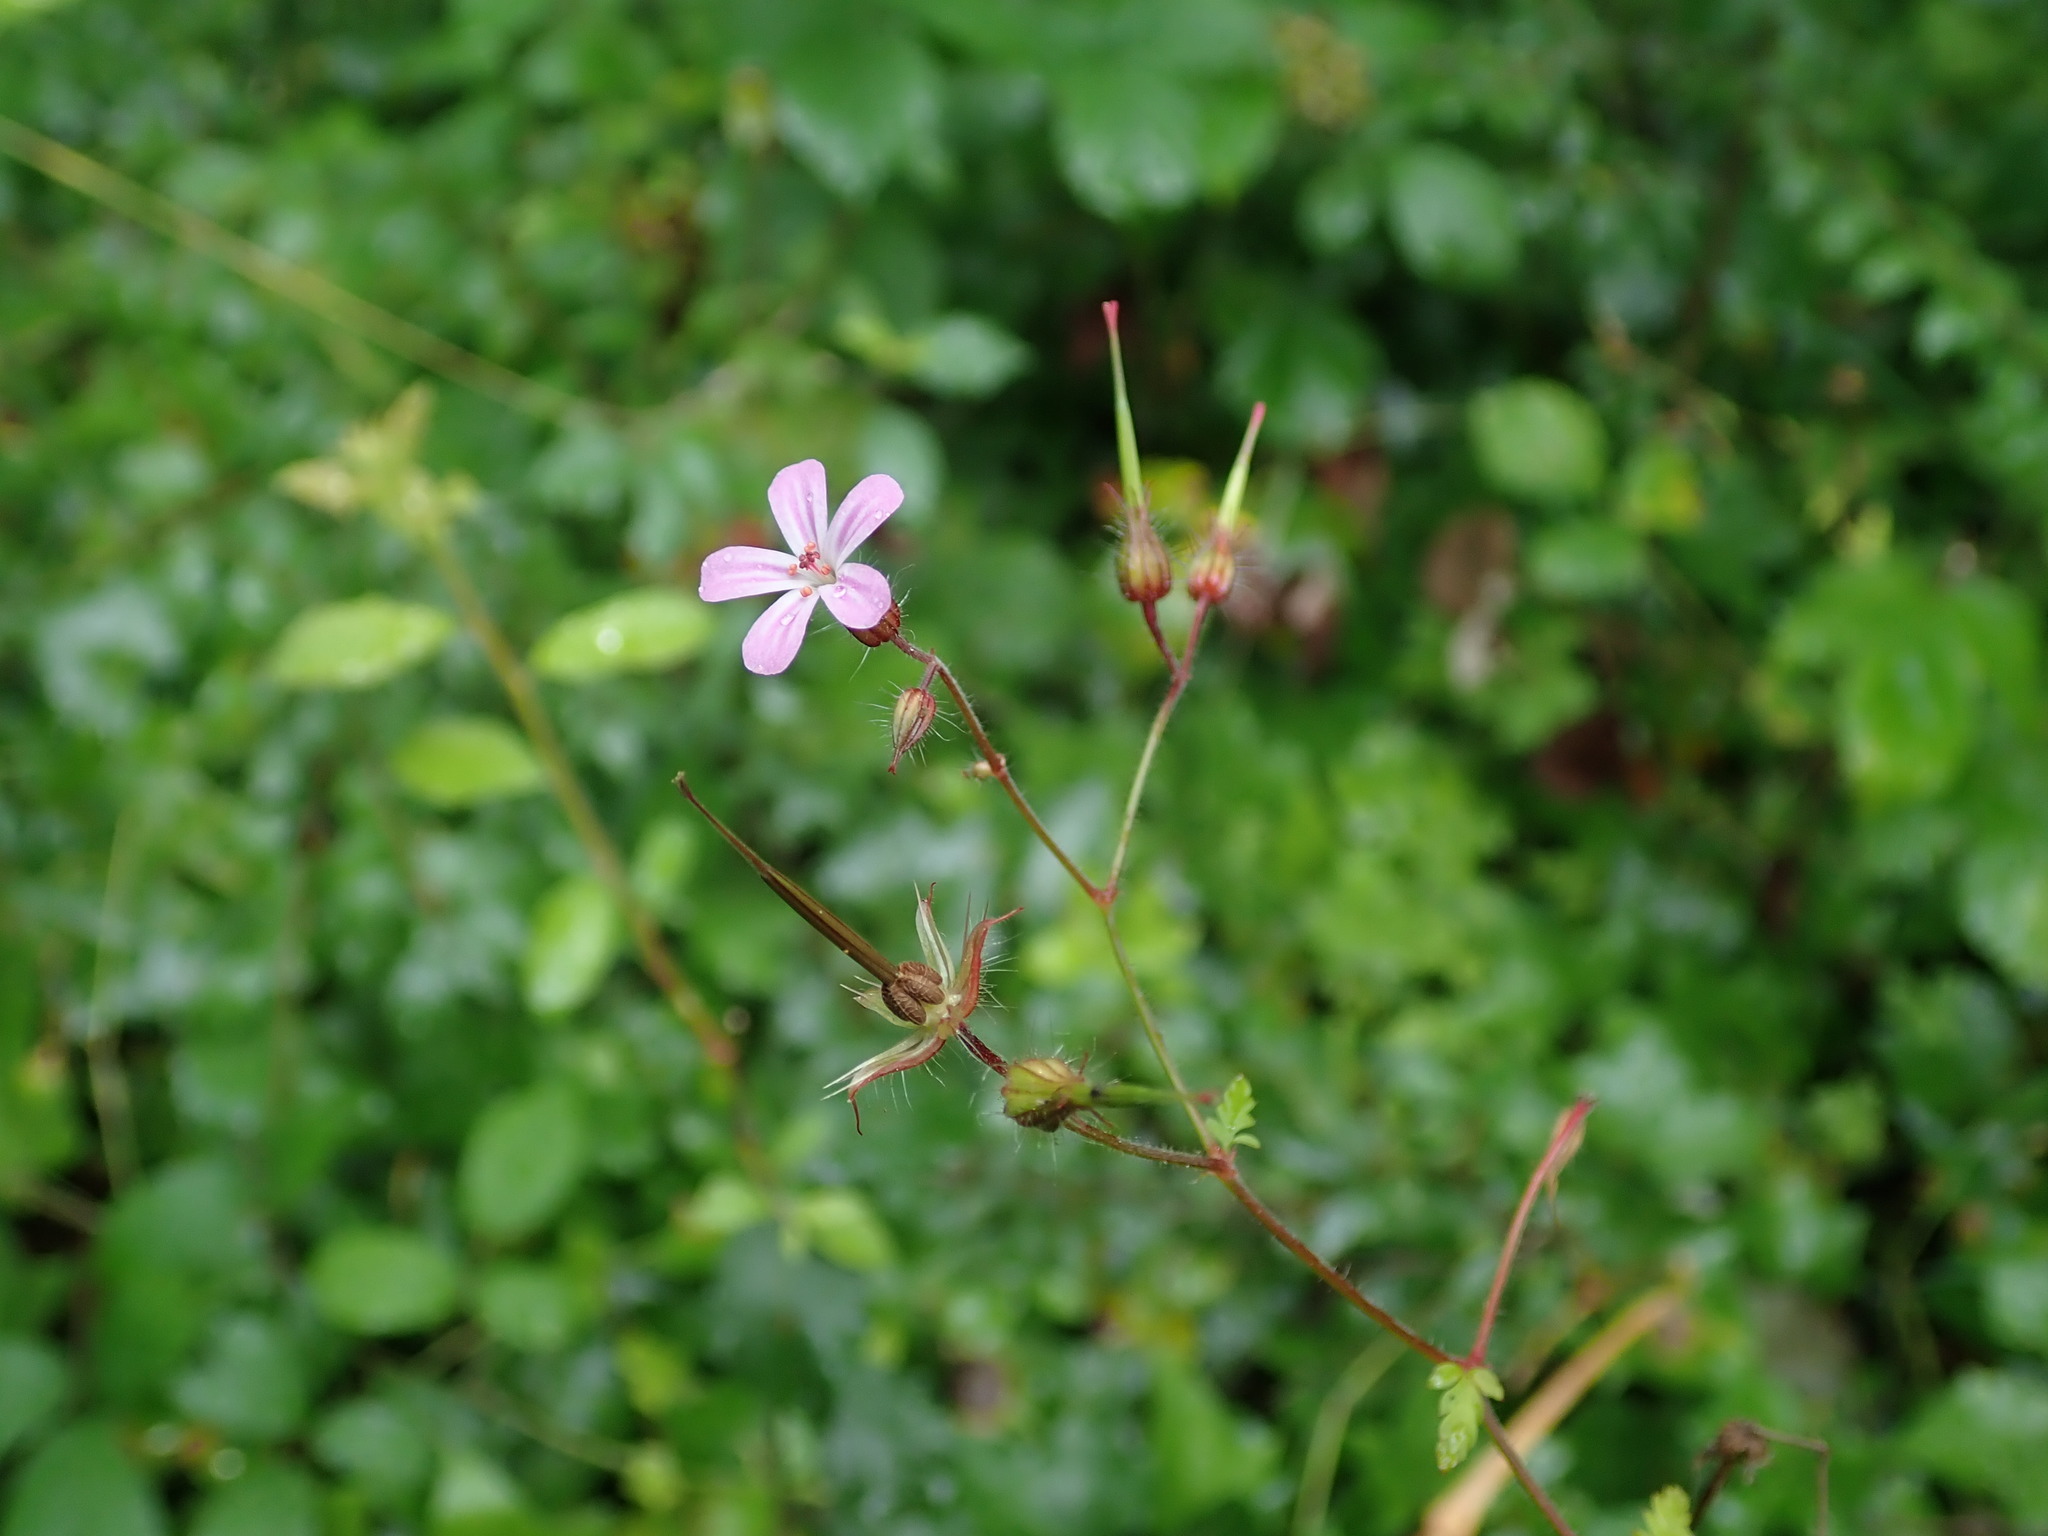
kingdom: Plantae
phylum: Tracheophyta
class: Magnoliopsida
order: Geraniales
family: Geraniaceae
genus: Geranium
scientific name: Geranium robertianum
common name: Herb-robert
